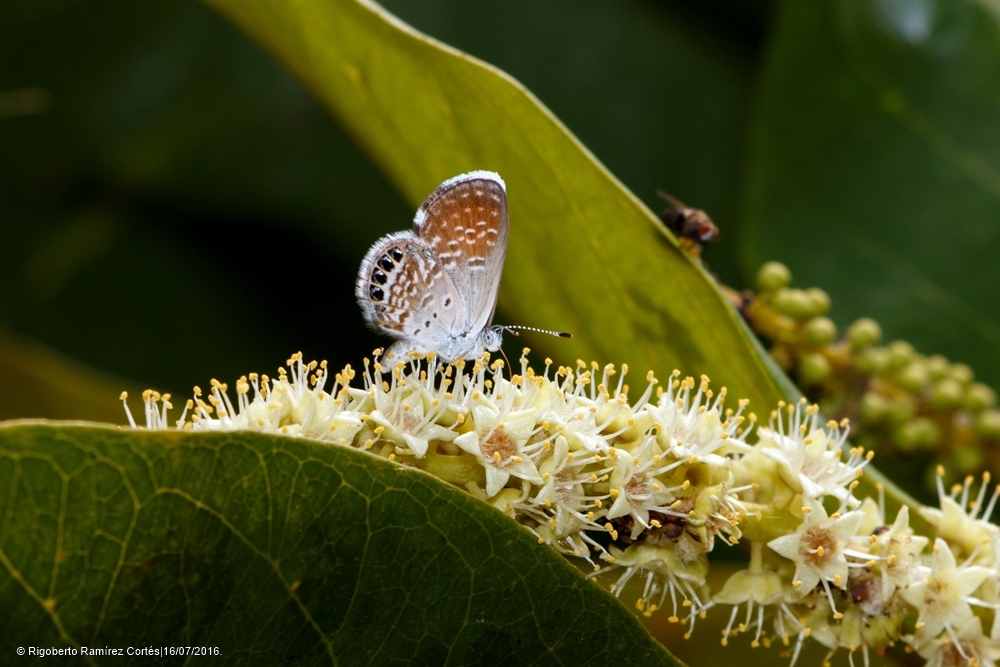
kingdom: Animalia
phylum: Arthropoda
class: Insecta
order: Lepidoptera
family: Lycaenidae
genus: Brephidium
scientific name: Brephidium exilis
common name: Pygmy blue
